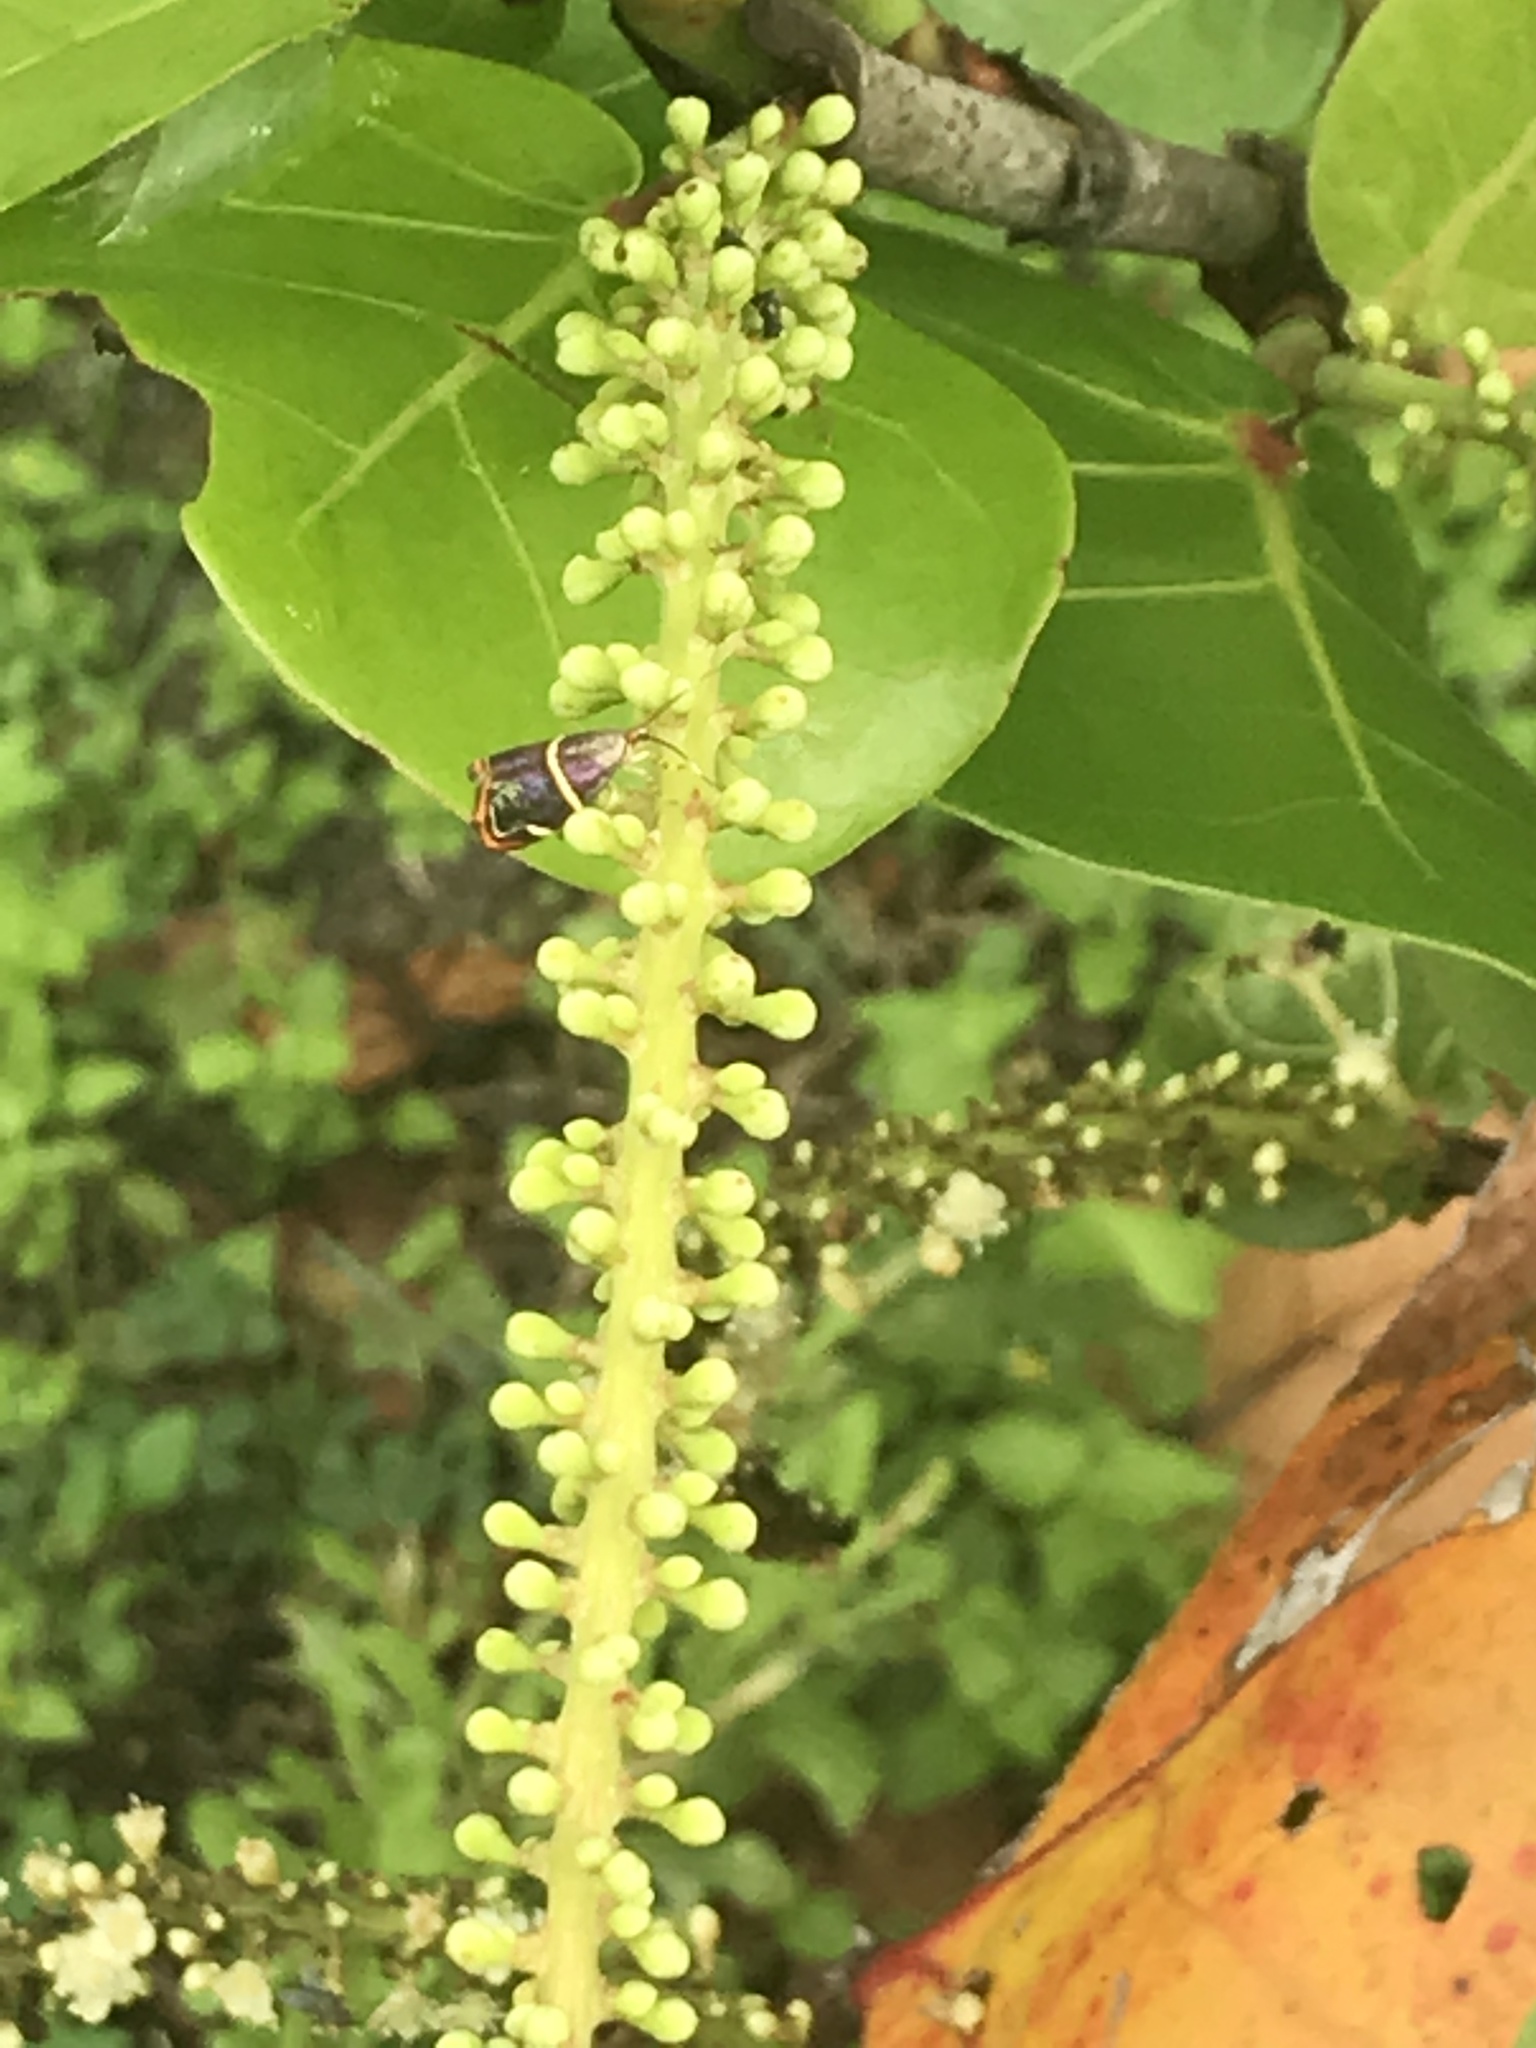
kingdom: Animalia
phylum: Arthropoda
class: Insecta
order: Lepidoptera
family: Choreutidae
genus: Hemerophila
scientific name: Hemerophila
